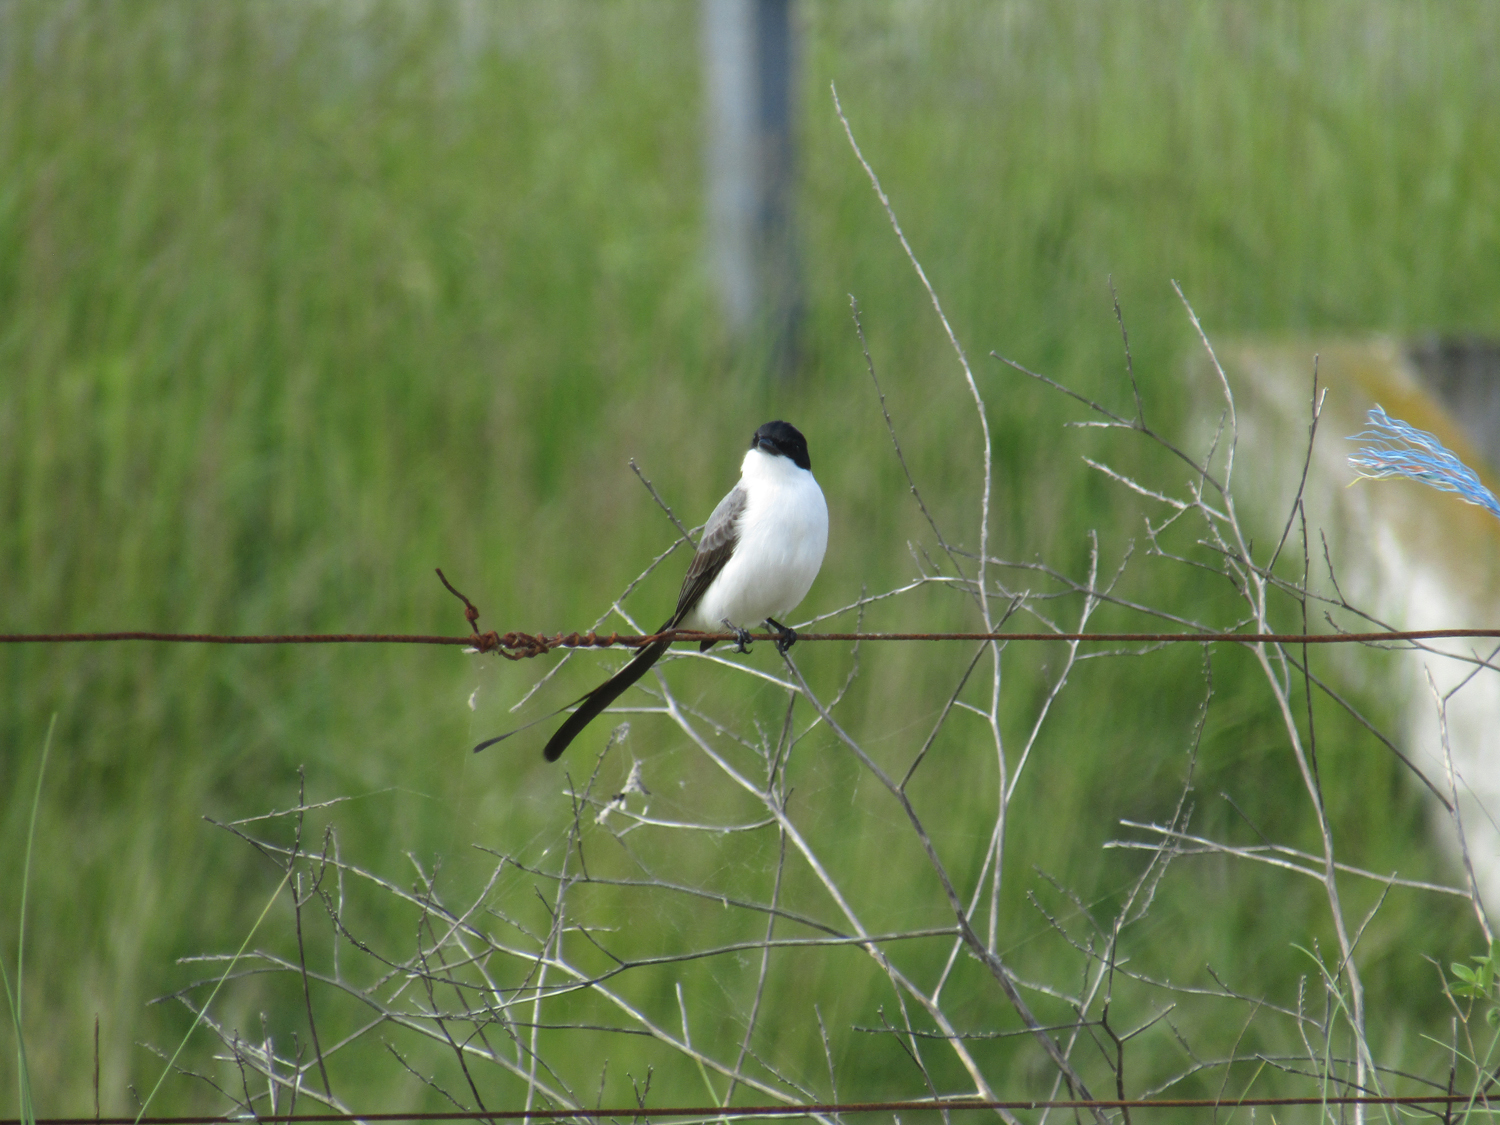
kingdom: Animalia
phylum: Chordata
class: Aves
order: Passeriformes
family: Tyrannidae
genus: Tyrannus
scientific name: Tyrannus savana
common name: Fork-tailed flycatcher
